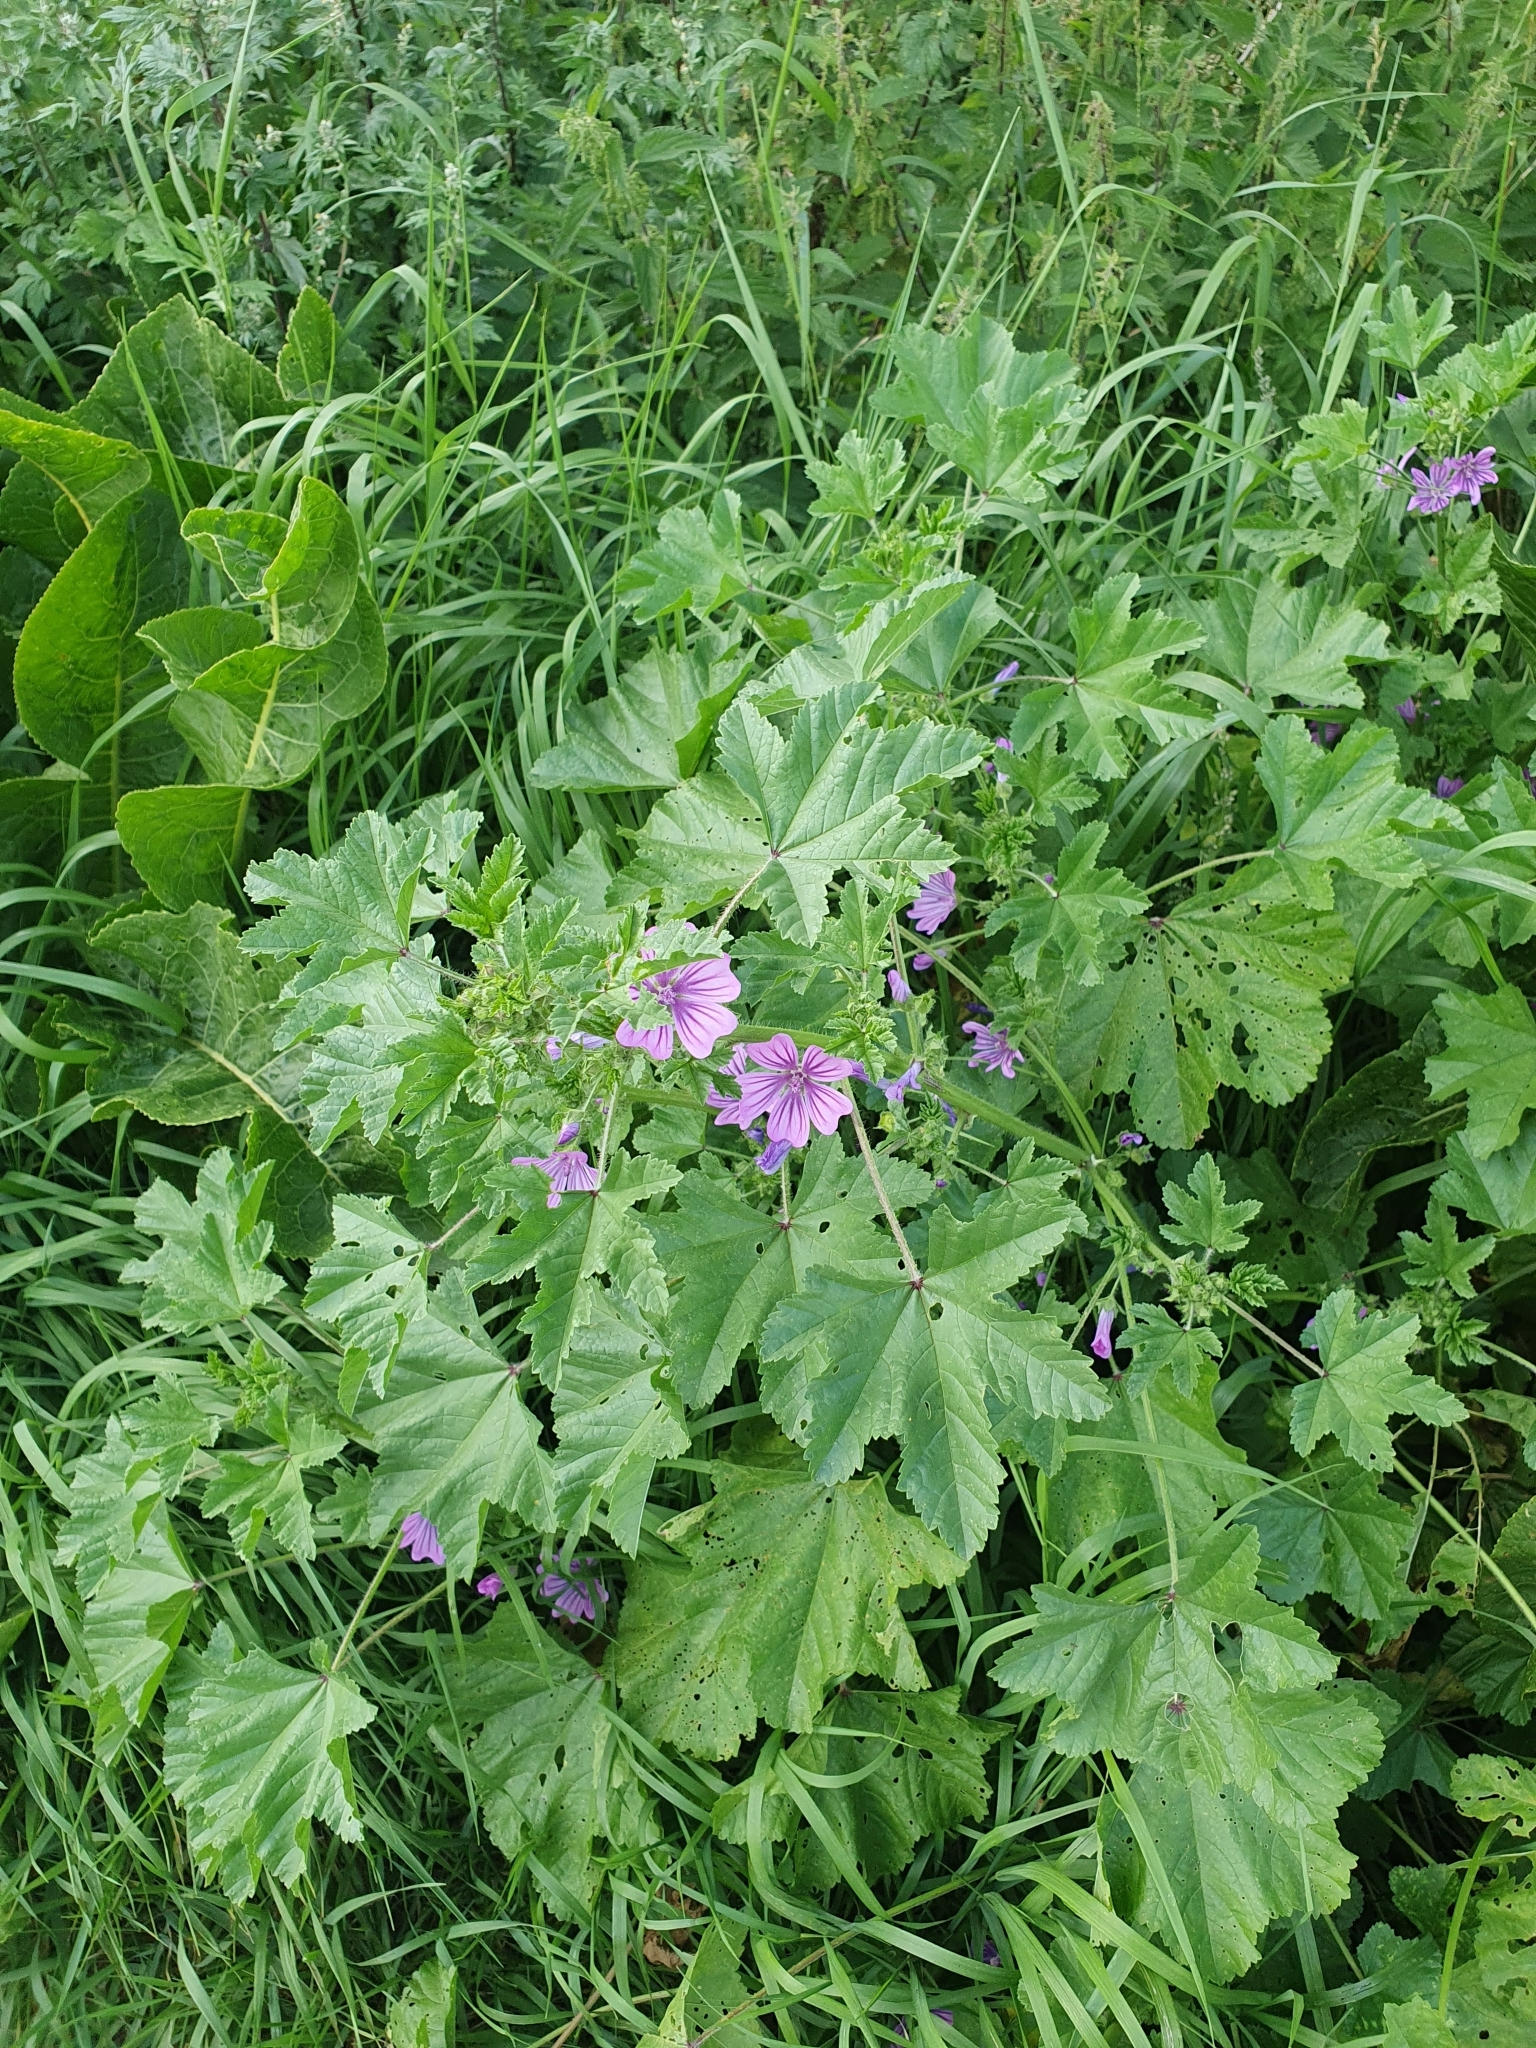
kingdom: Plantae
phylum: Tracheophyta
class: Magnoliopsida
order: Malvales
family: Malvaceae
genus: Malva
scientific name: Malva sylvestris
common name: Common mallow
